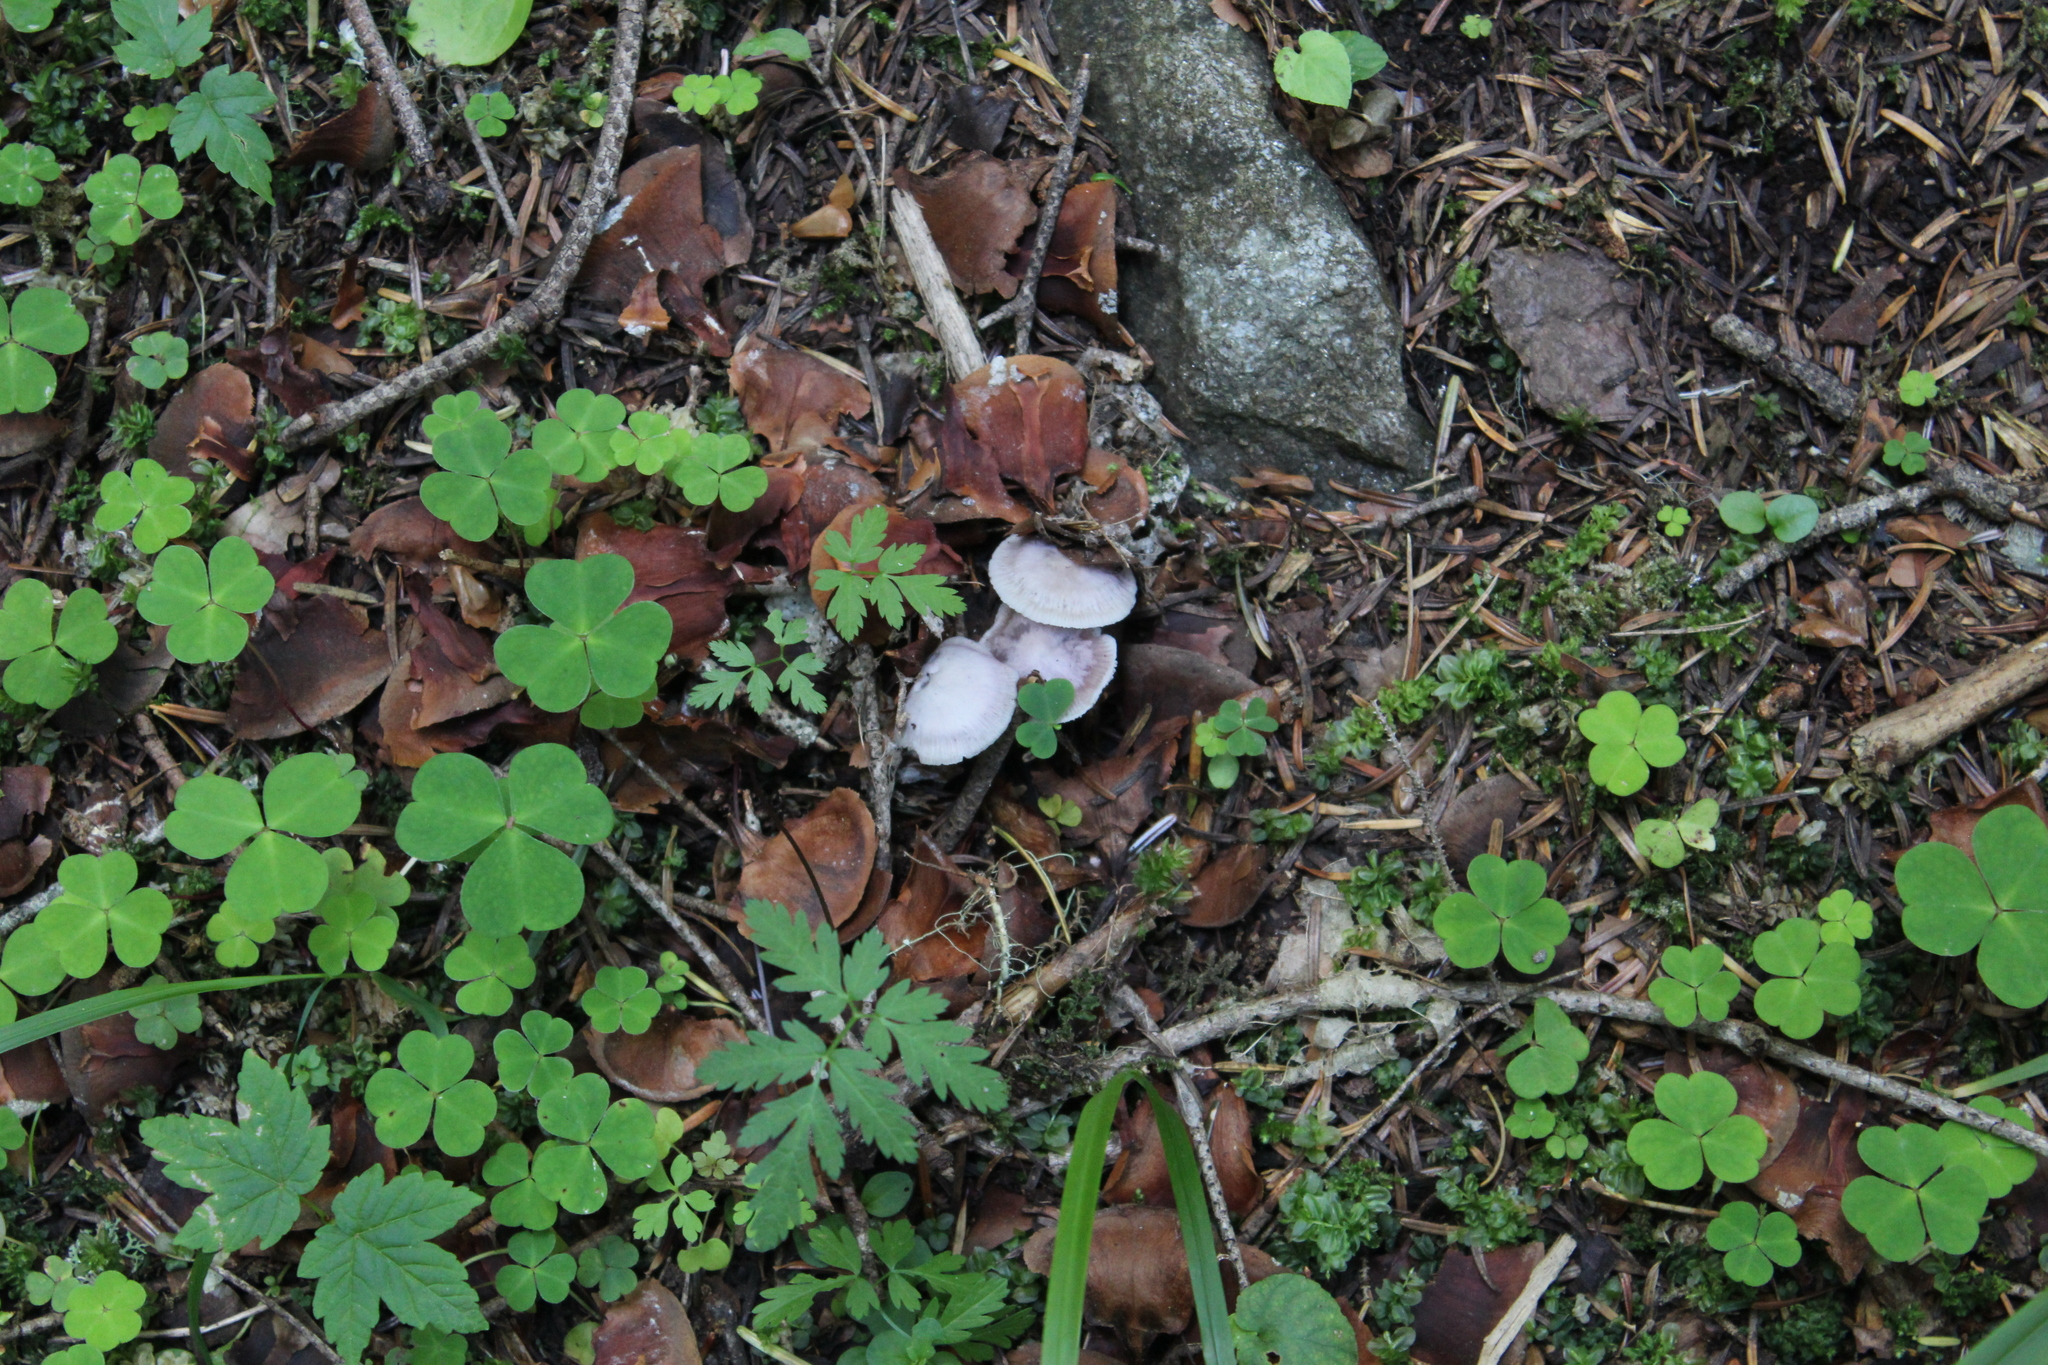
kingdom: Fungi
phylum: Basidiomycota
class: Agaricomycetes
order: Agaricales
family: Mycenaceae
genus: Mycena
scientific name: Mycena pura
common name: Lilac bonnet
